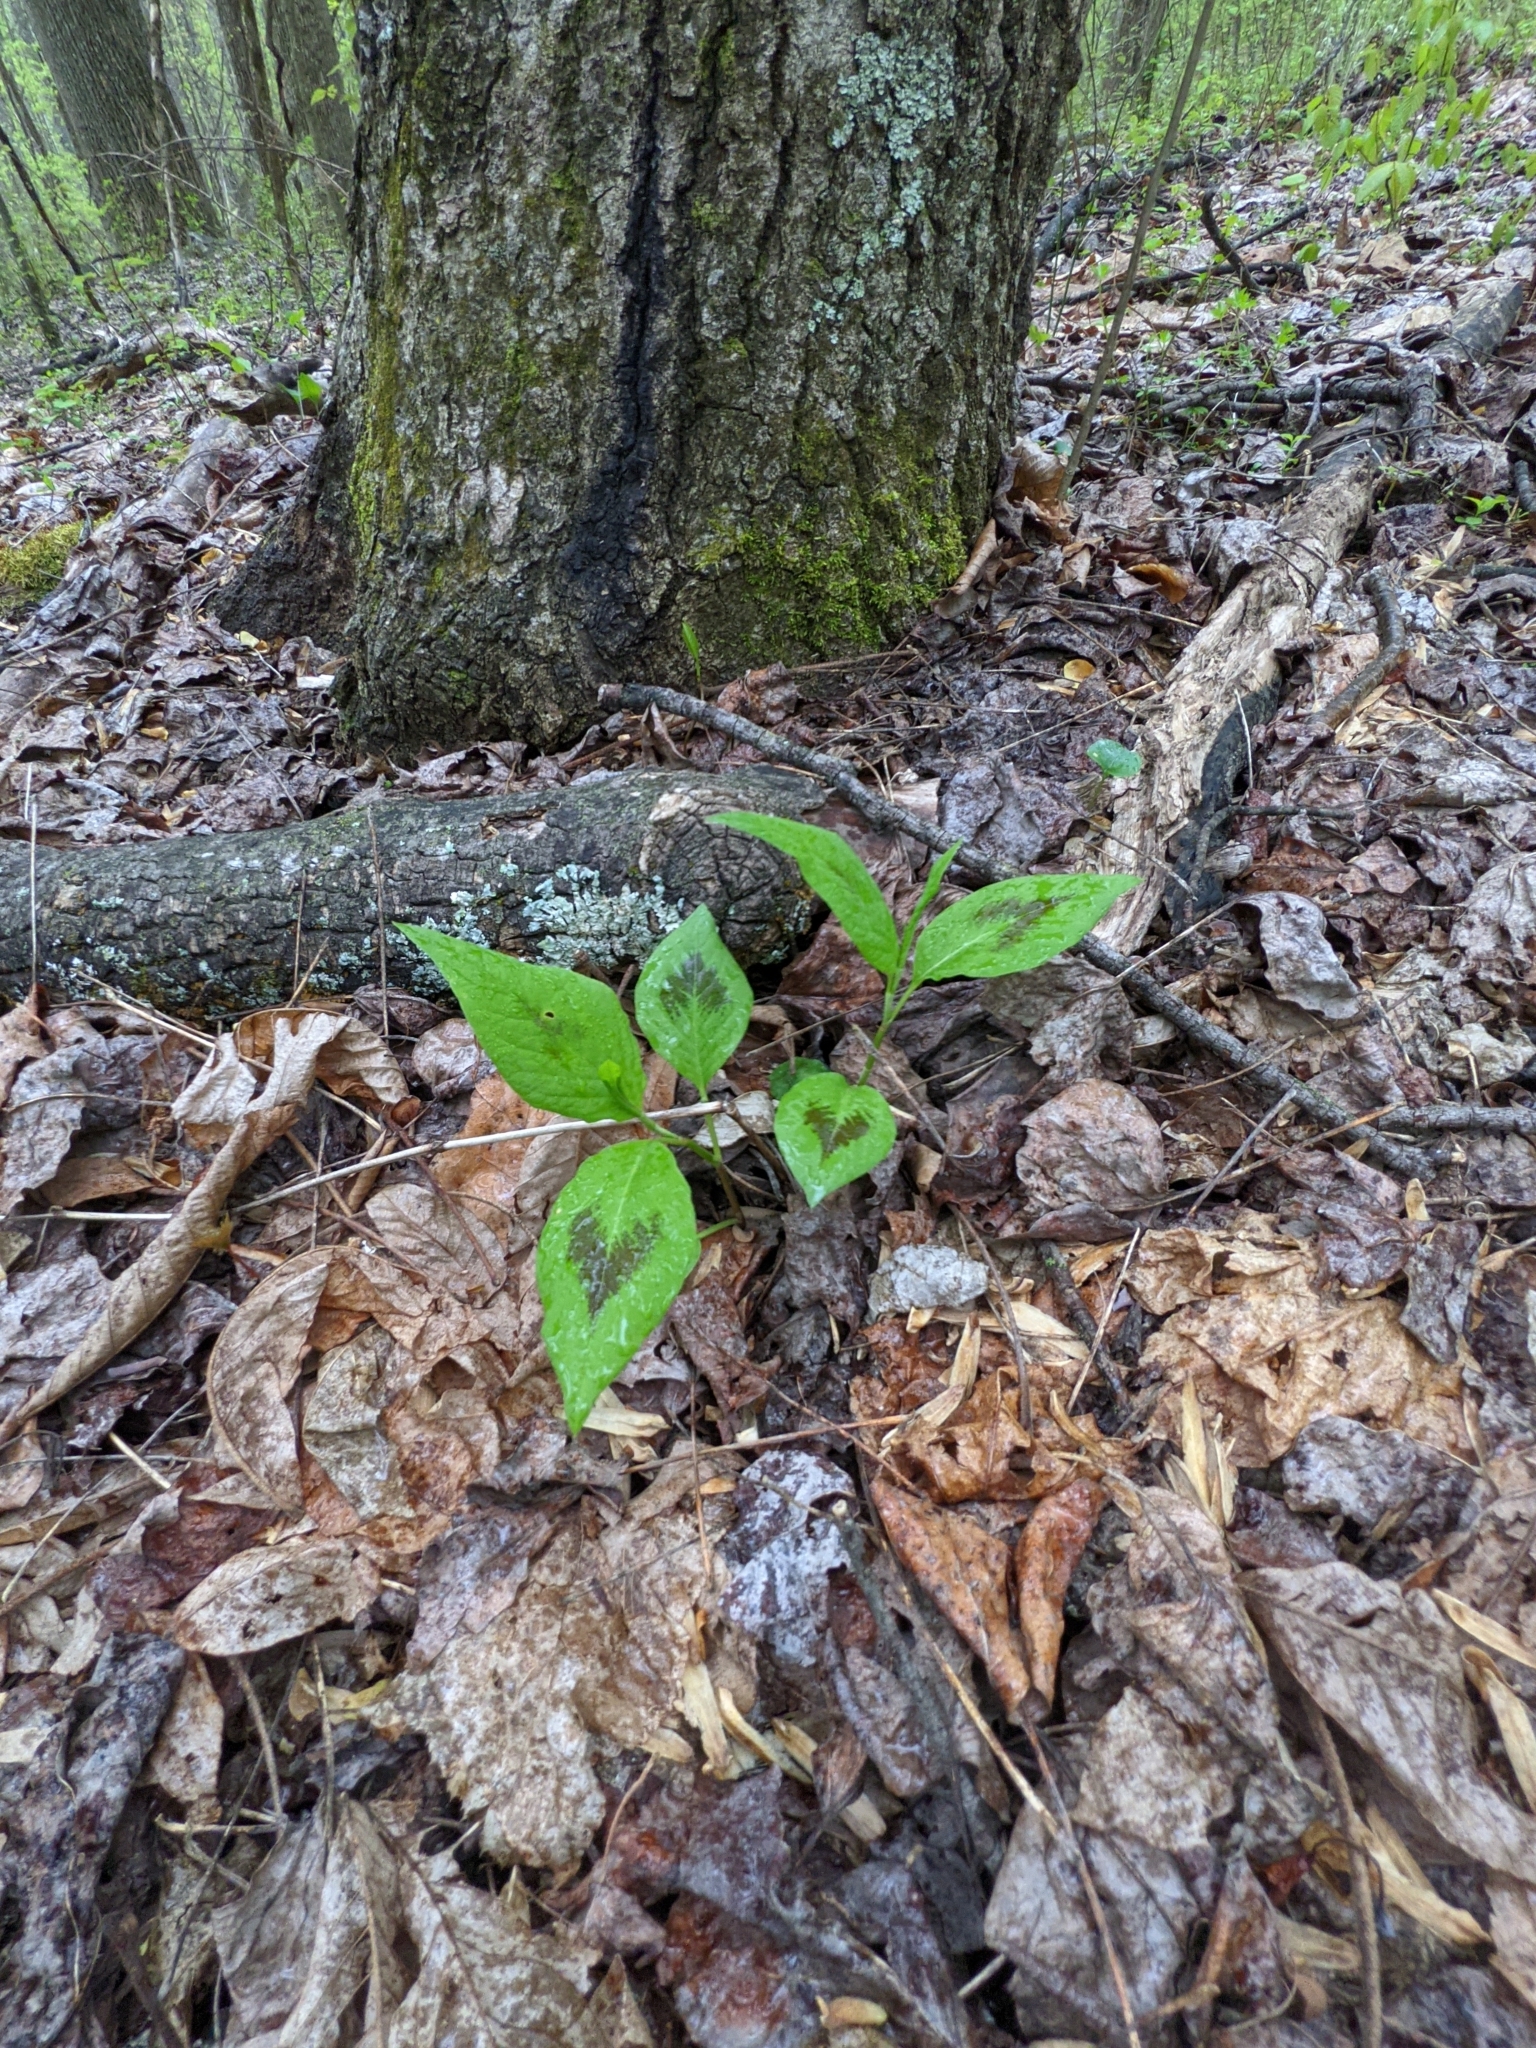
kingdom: Plantae
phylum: Tracheophyta
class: Magnoliopsida
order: Caryophyllales
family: Polygonaceae
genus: Persicaria
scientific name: Persicaria virginiana
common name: Jumpseed
